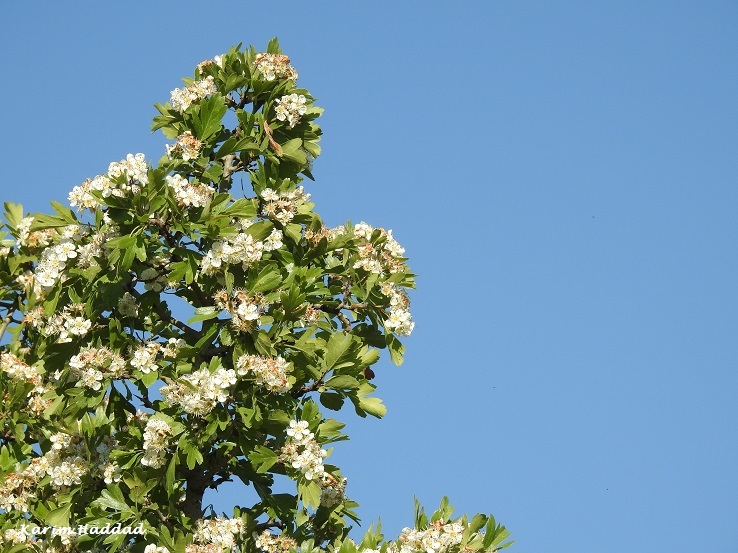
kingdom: Plantae
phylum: Tracheophyta
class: Magnoliopsida
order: Rosales
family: Rosaceae
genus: Crataegus
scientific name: Crataegus azarolus
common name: Azarole
